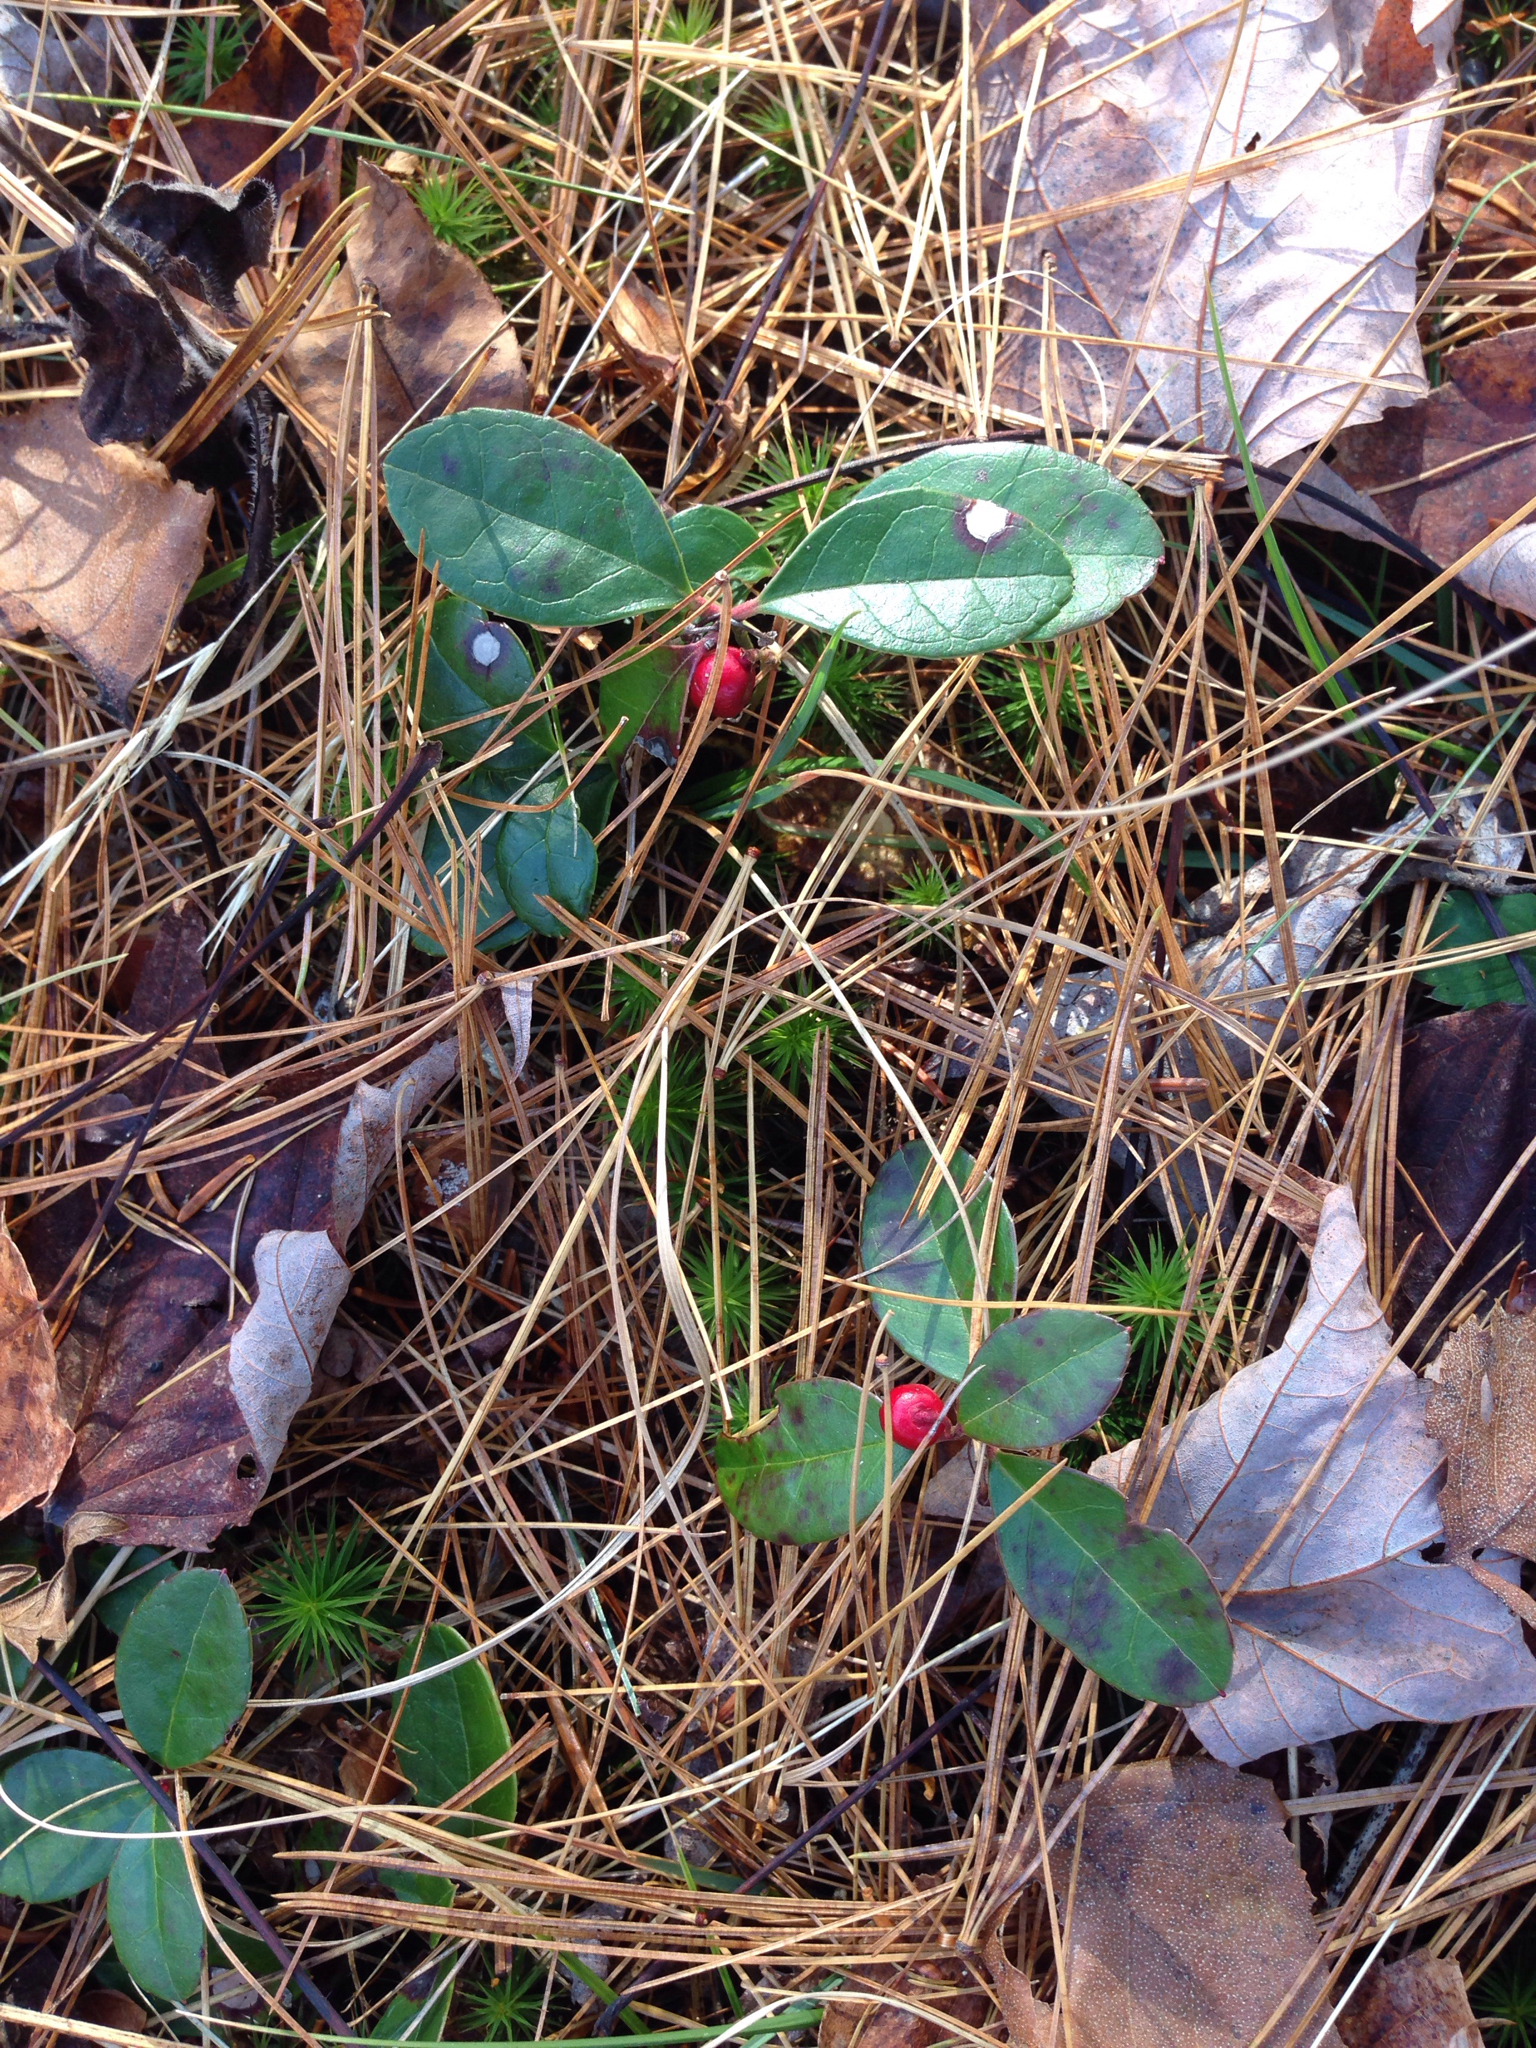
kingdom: Plantae
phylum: Tracheophyta
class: Magnoliopsida
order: Ericales
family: Ericaceae
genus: Gaultheria
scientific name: Gaultheria procumbens
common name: Checkerberry
